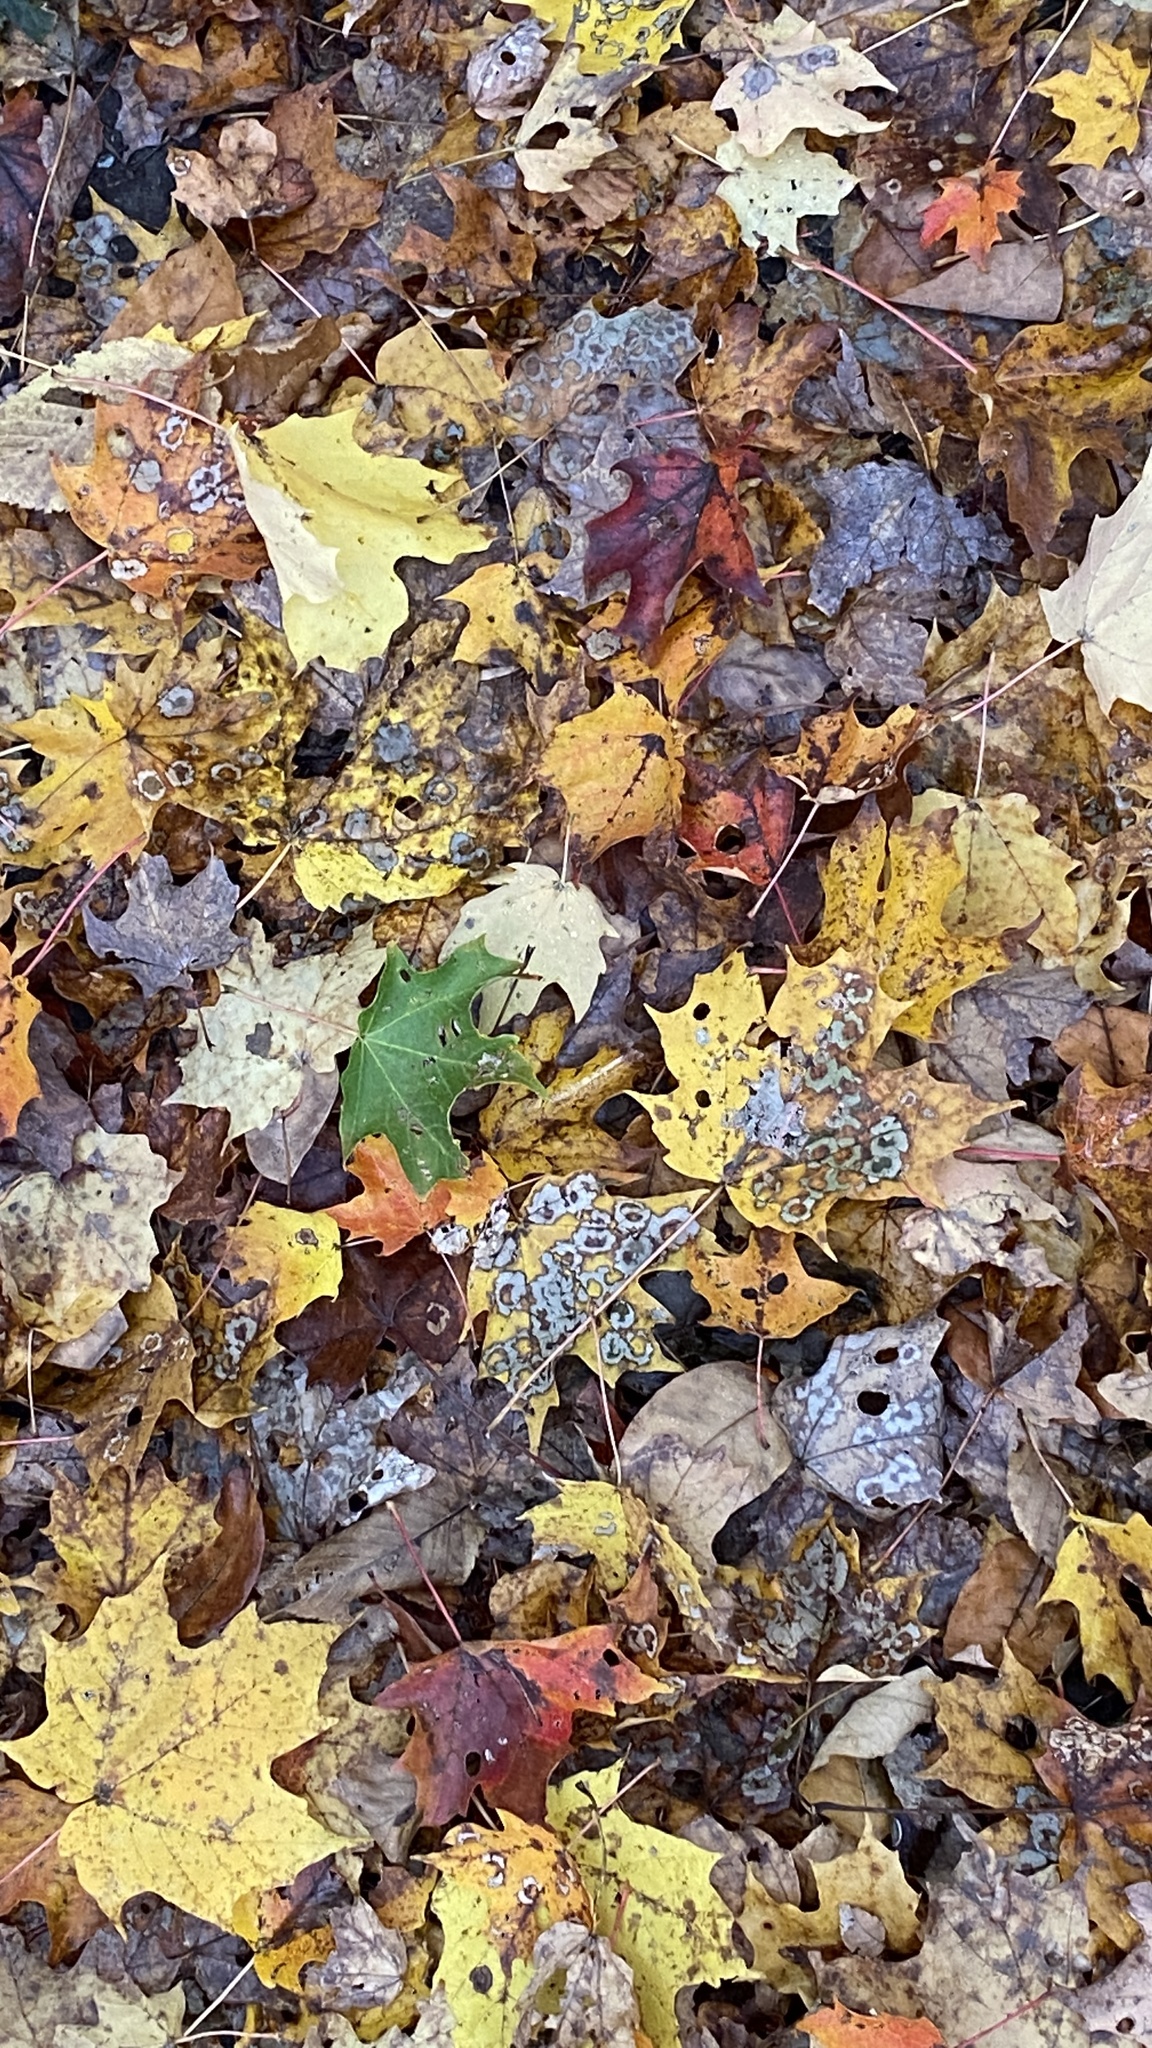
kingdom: Plantae
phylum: Tracheophyta
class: Magnoliopsida
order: Sapindales
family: Sapindaceae
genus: Acer
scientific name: Acer saccharum
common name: Sugar maple
